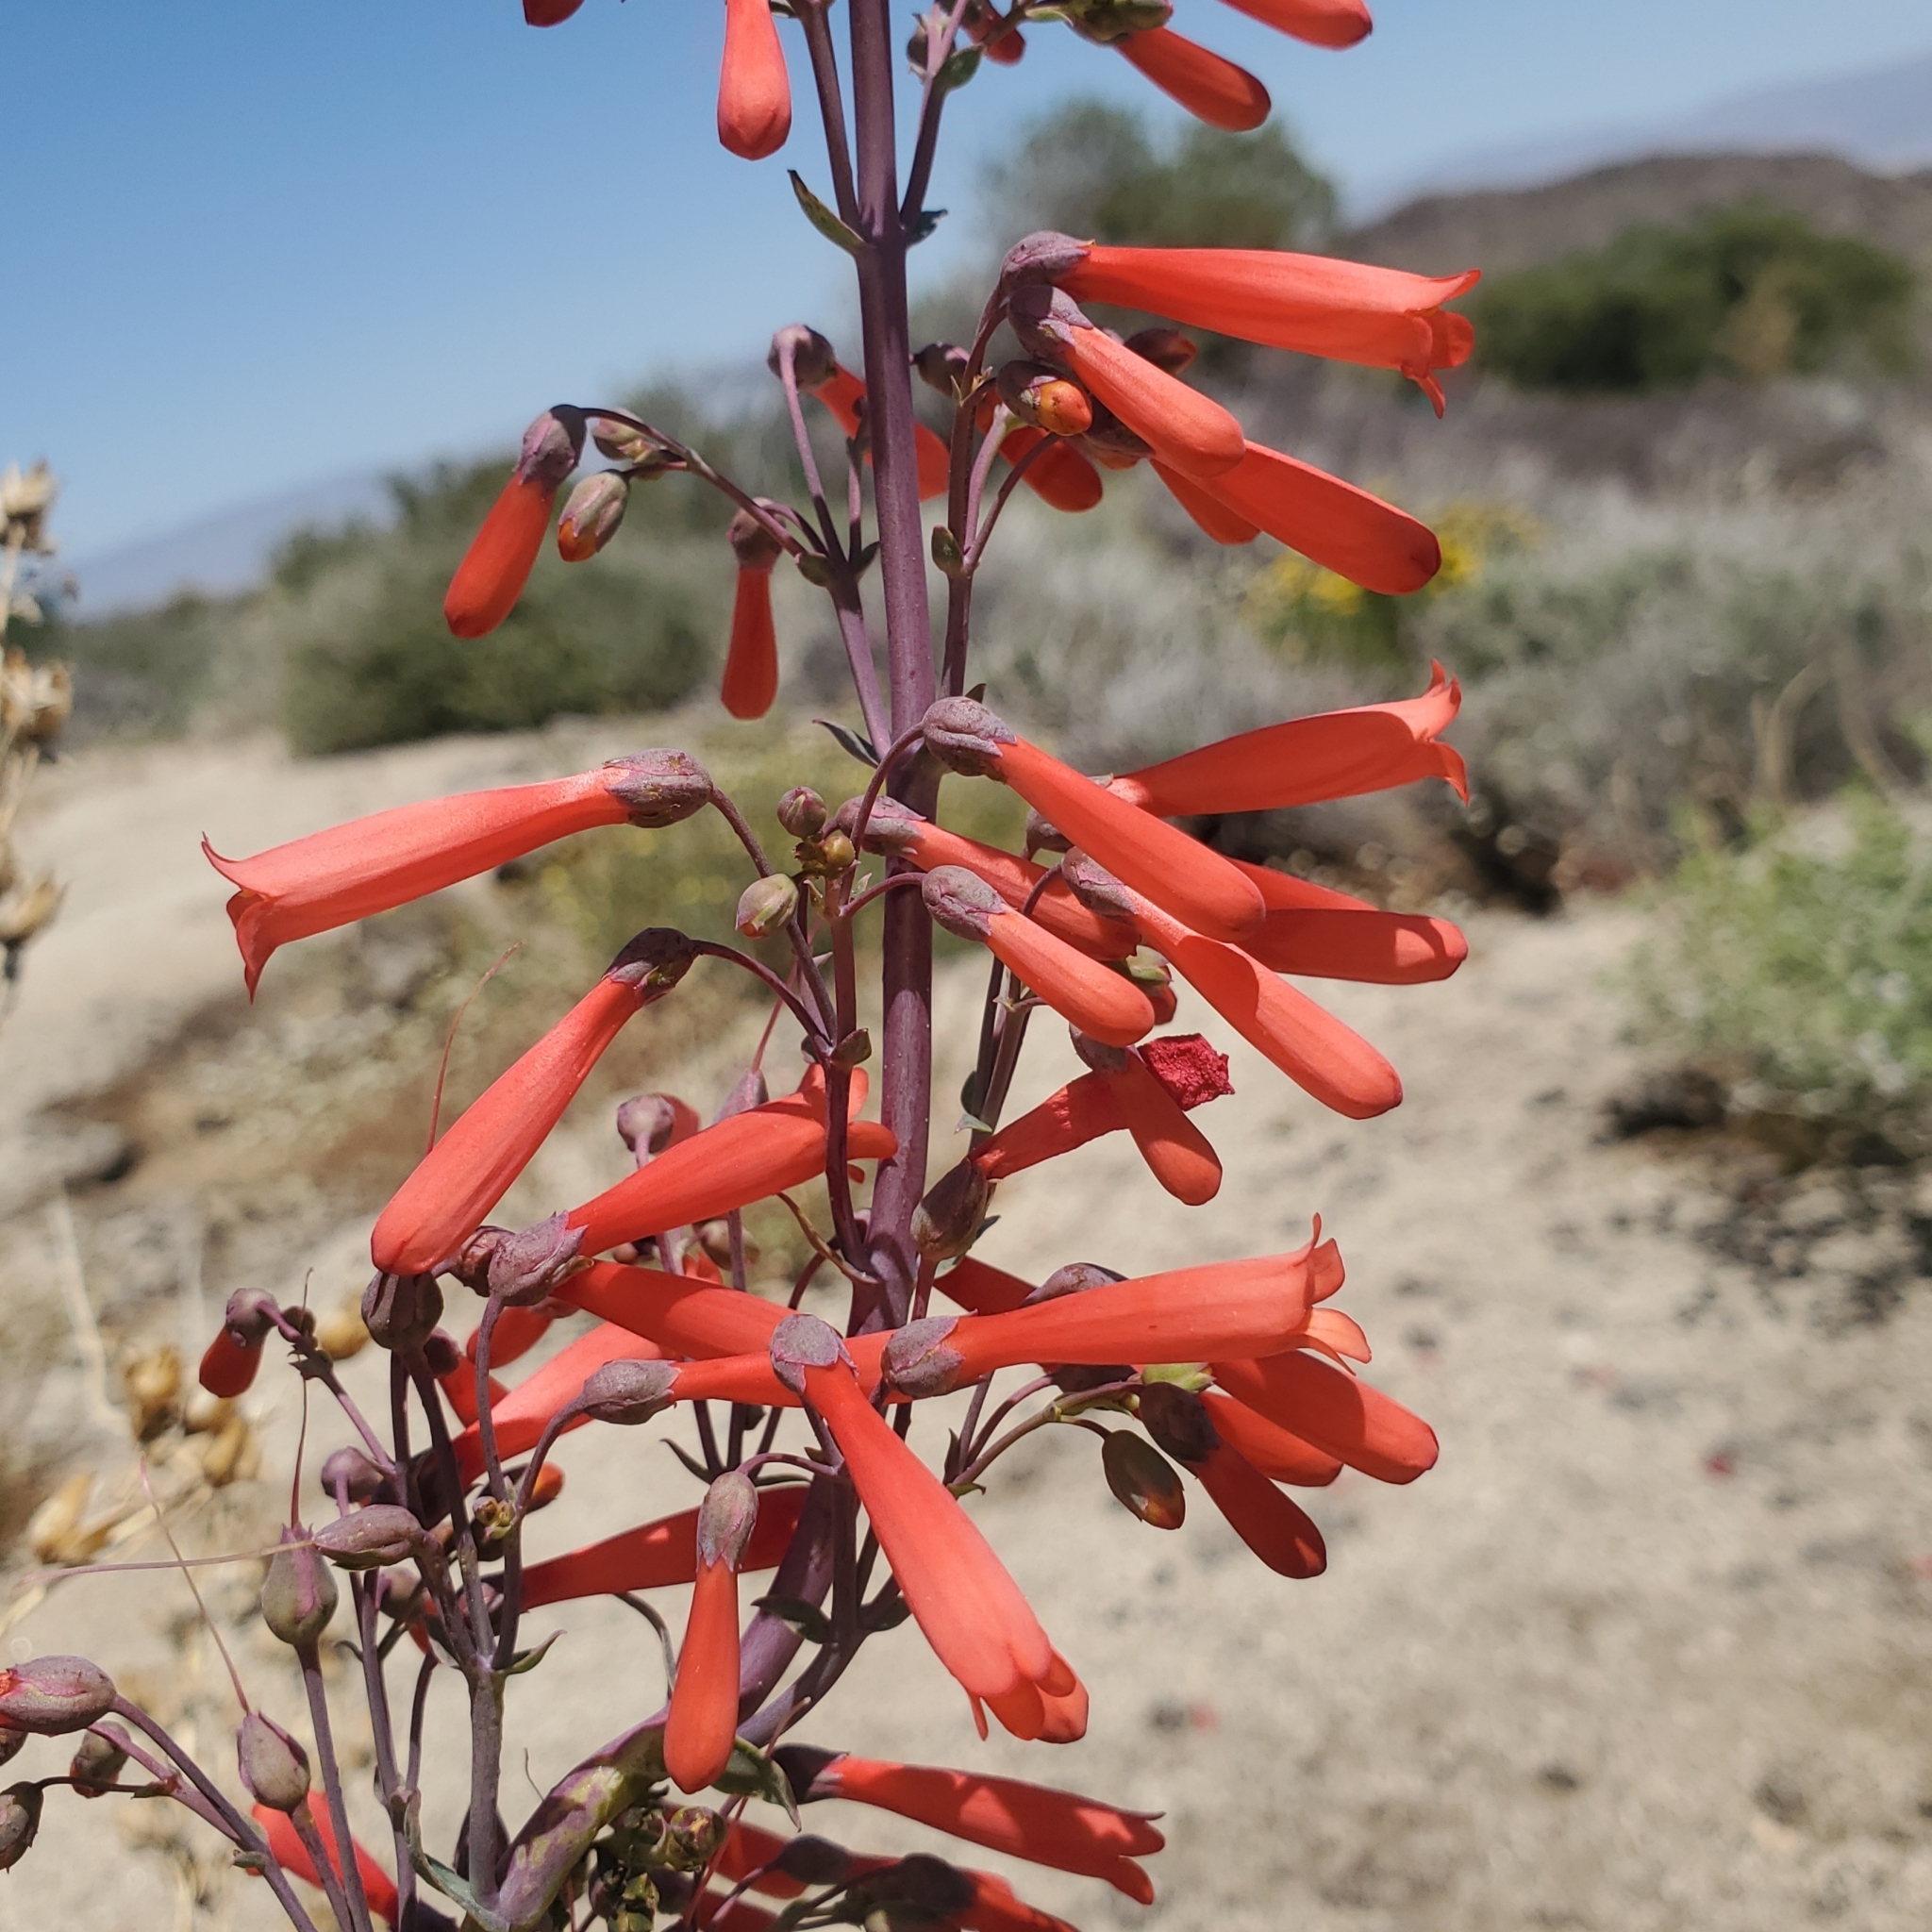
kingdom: Plantae
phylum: Tracheophyta
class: Magnoliopsida
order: Lamiales
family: Plantaginaceae
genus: Penstemon
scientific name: Penstemon centranthifolius
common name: Scarlet bugler
